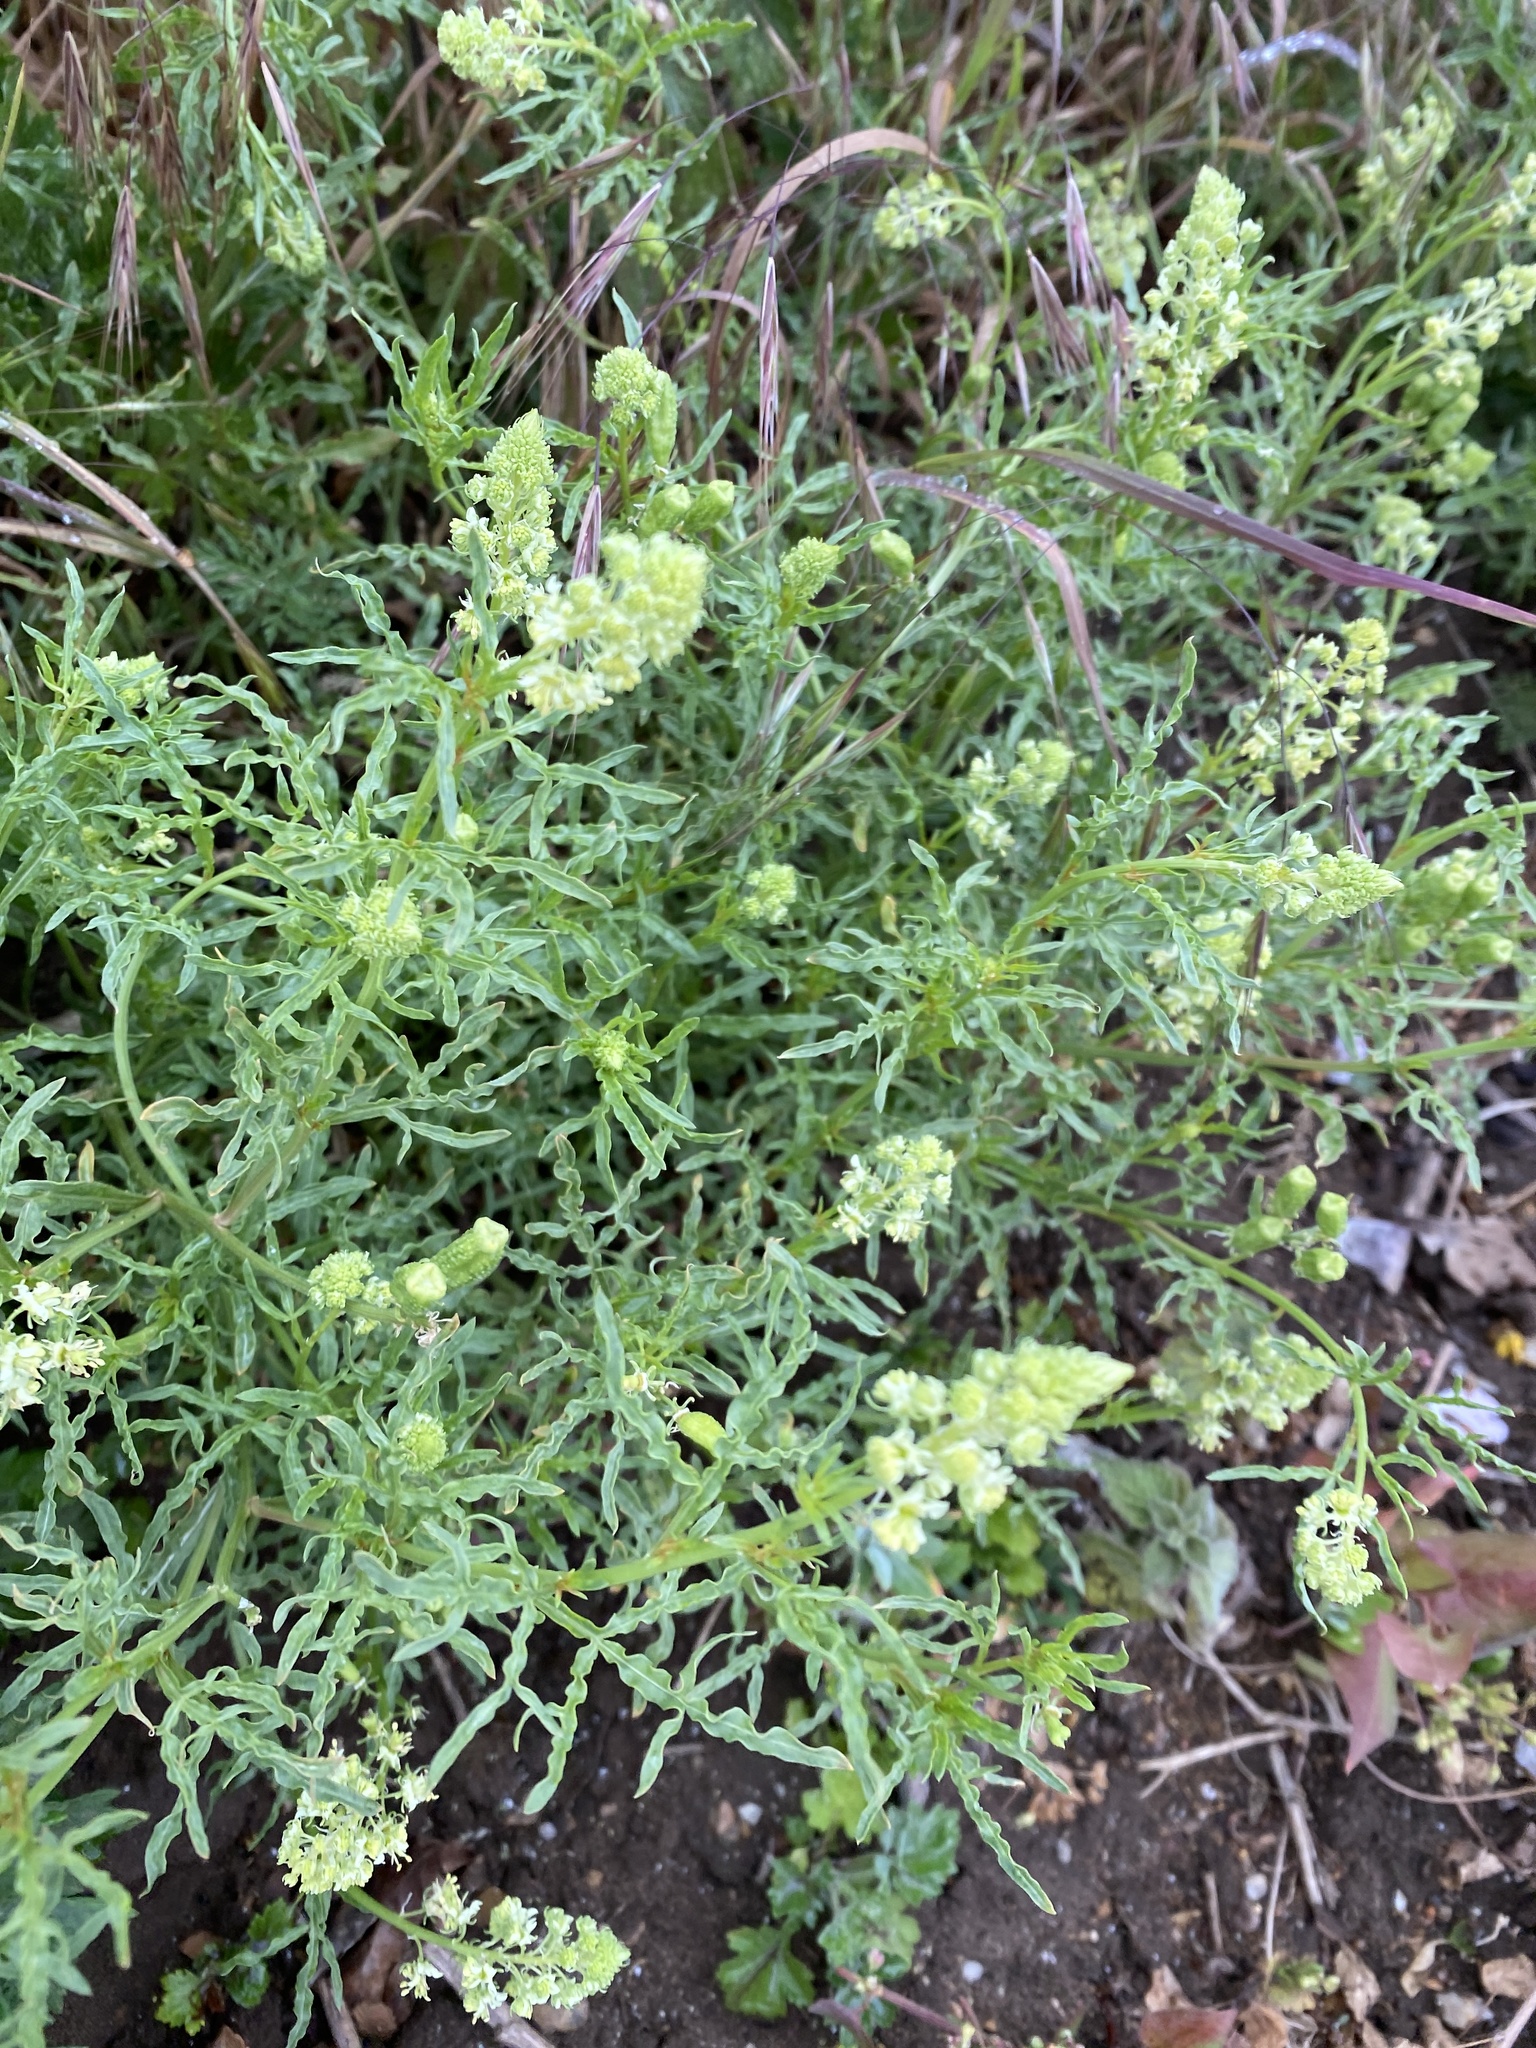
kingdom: Plantae
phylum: Tracheophyta
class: Magnoliopsida
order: Brassicales
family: Resedaceae
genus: Reseda
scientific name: Reseda lutea
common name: Wild mignonette
